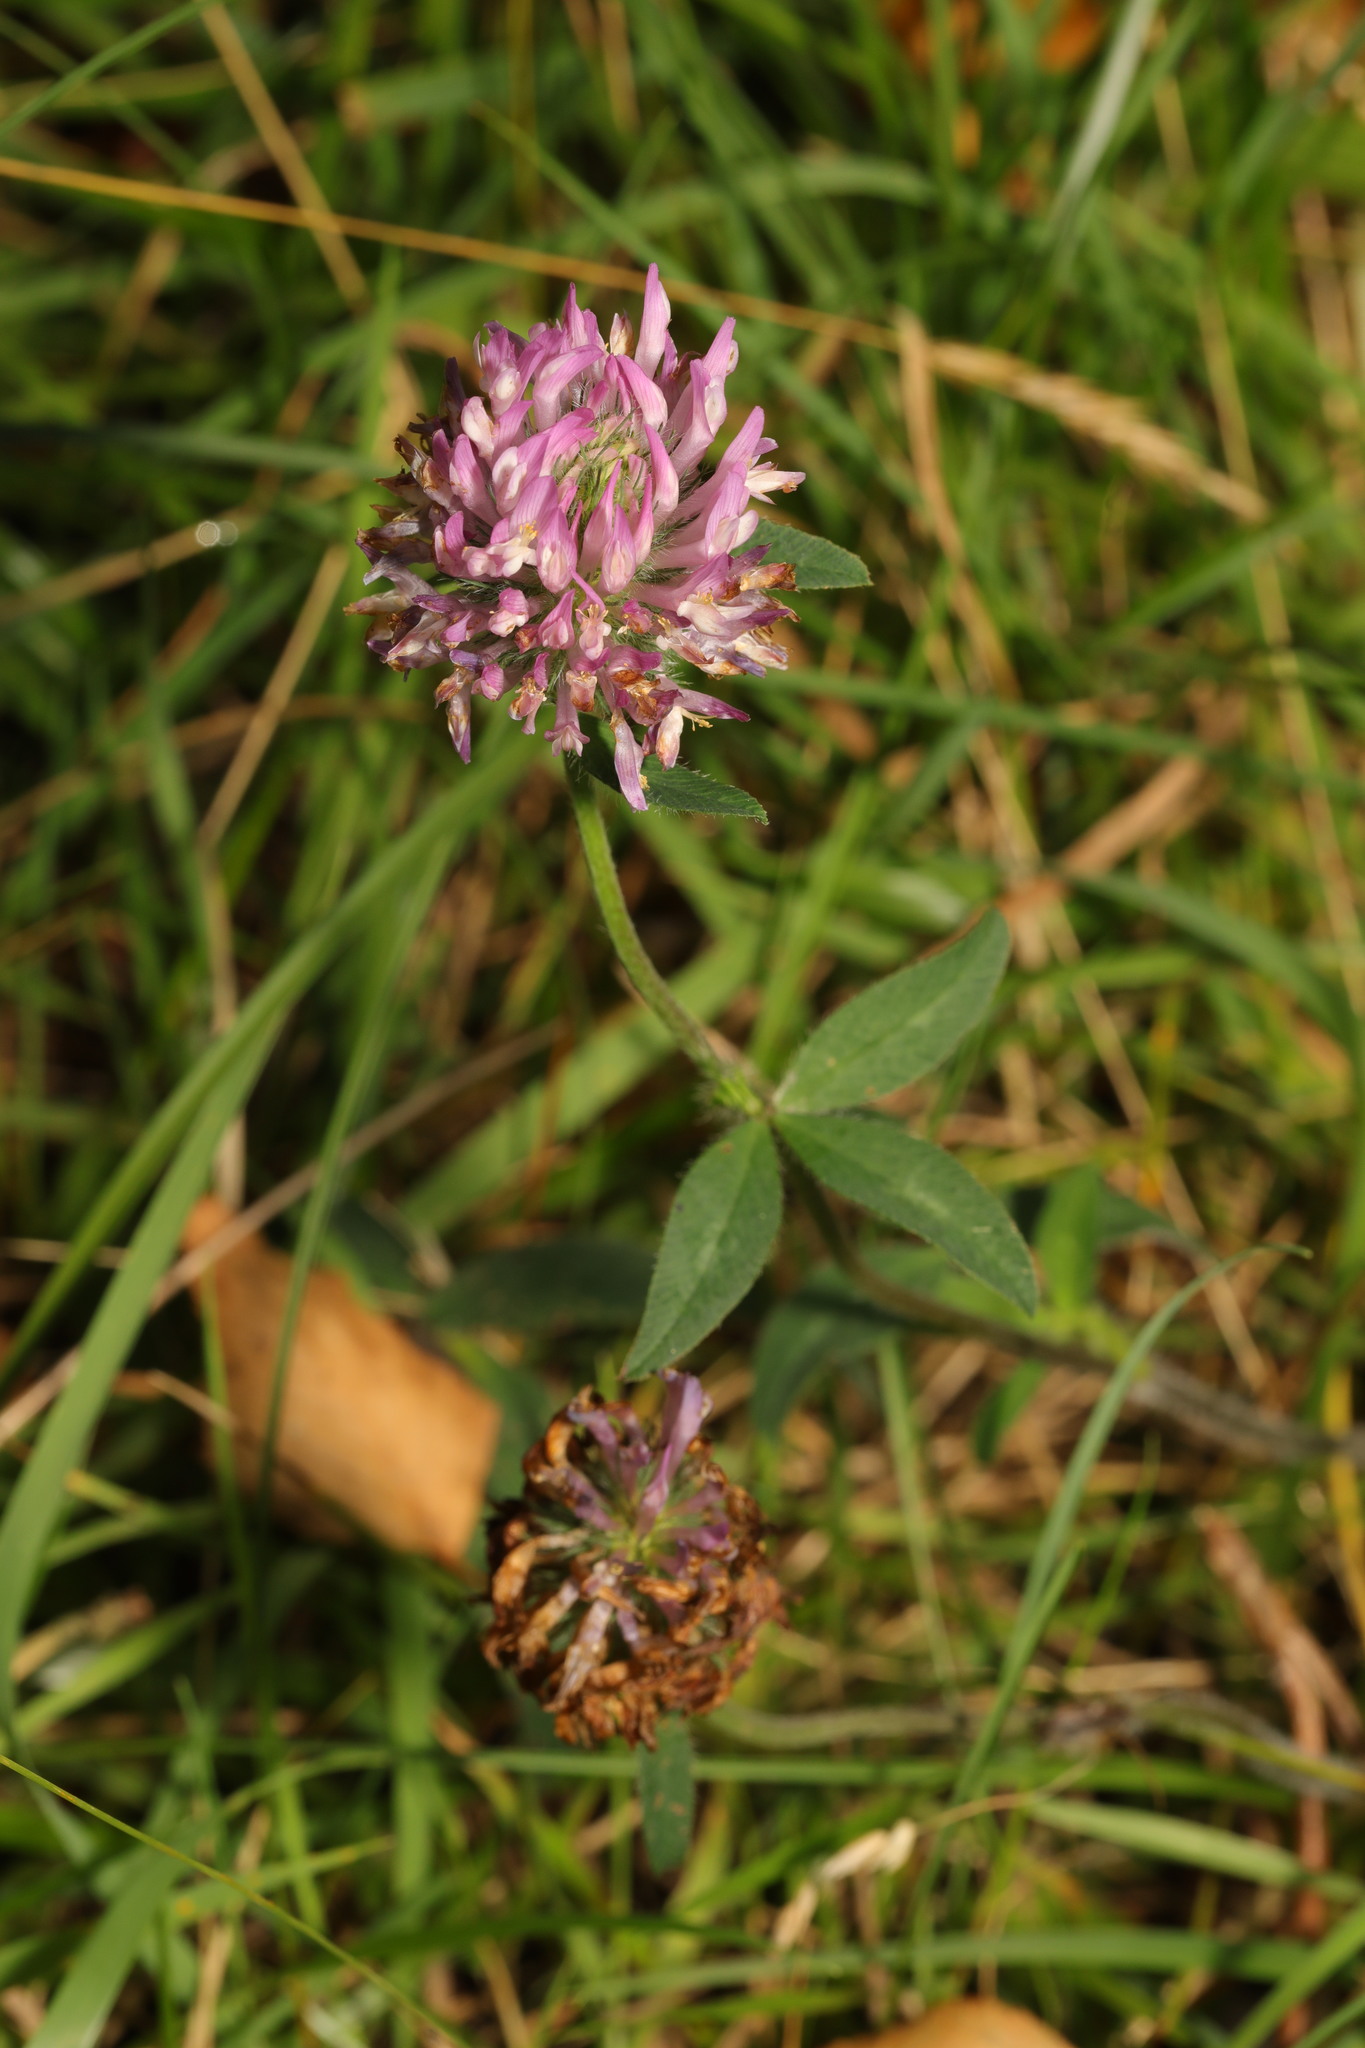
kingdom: Plantae
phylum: Tracheophyta
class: Magnoliopsida
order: Fabales
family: Fabaceae
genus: Trifolium
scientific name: Trifolium pratense
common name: Red clover
